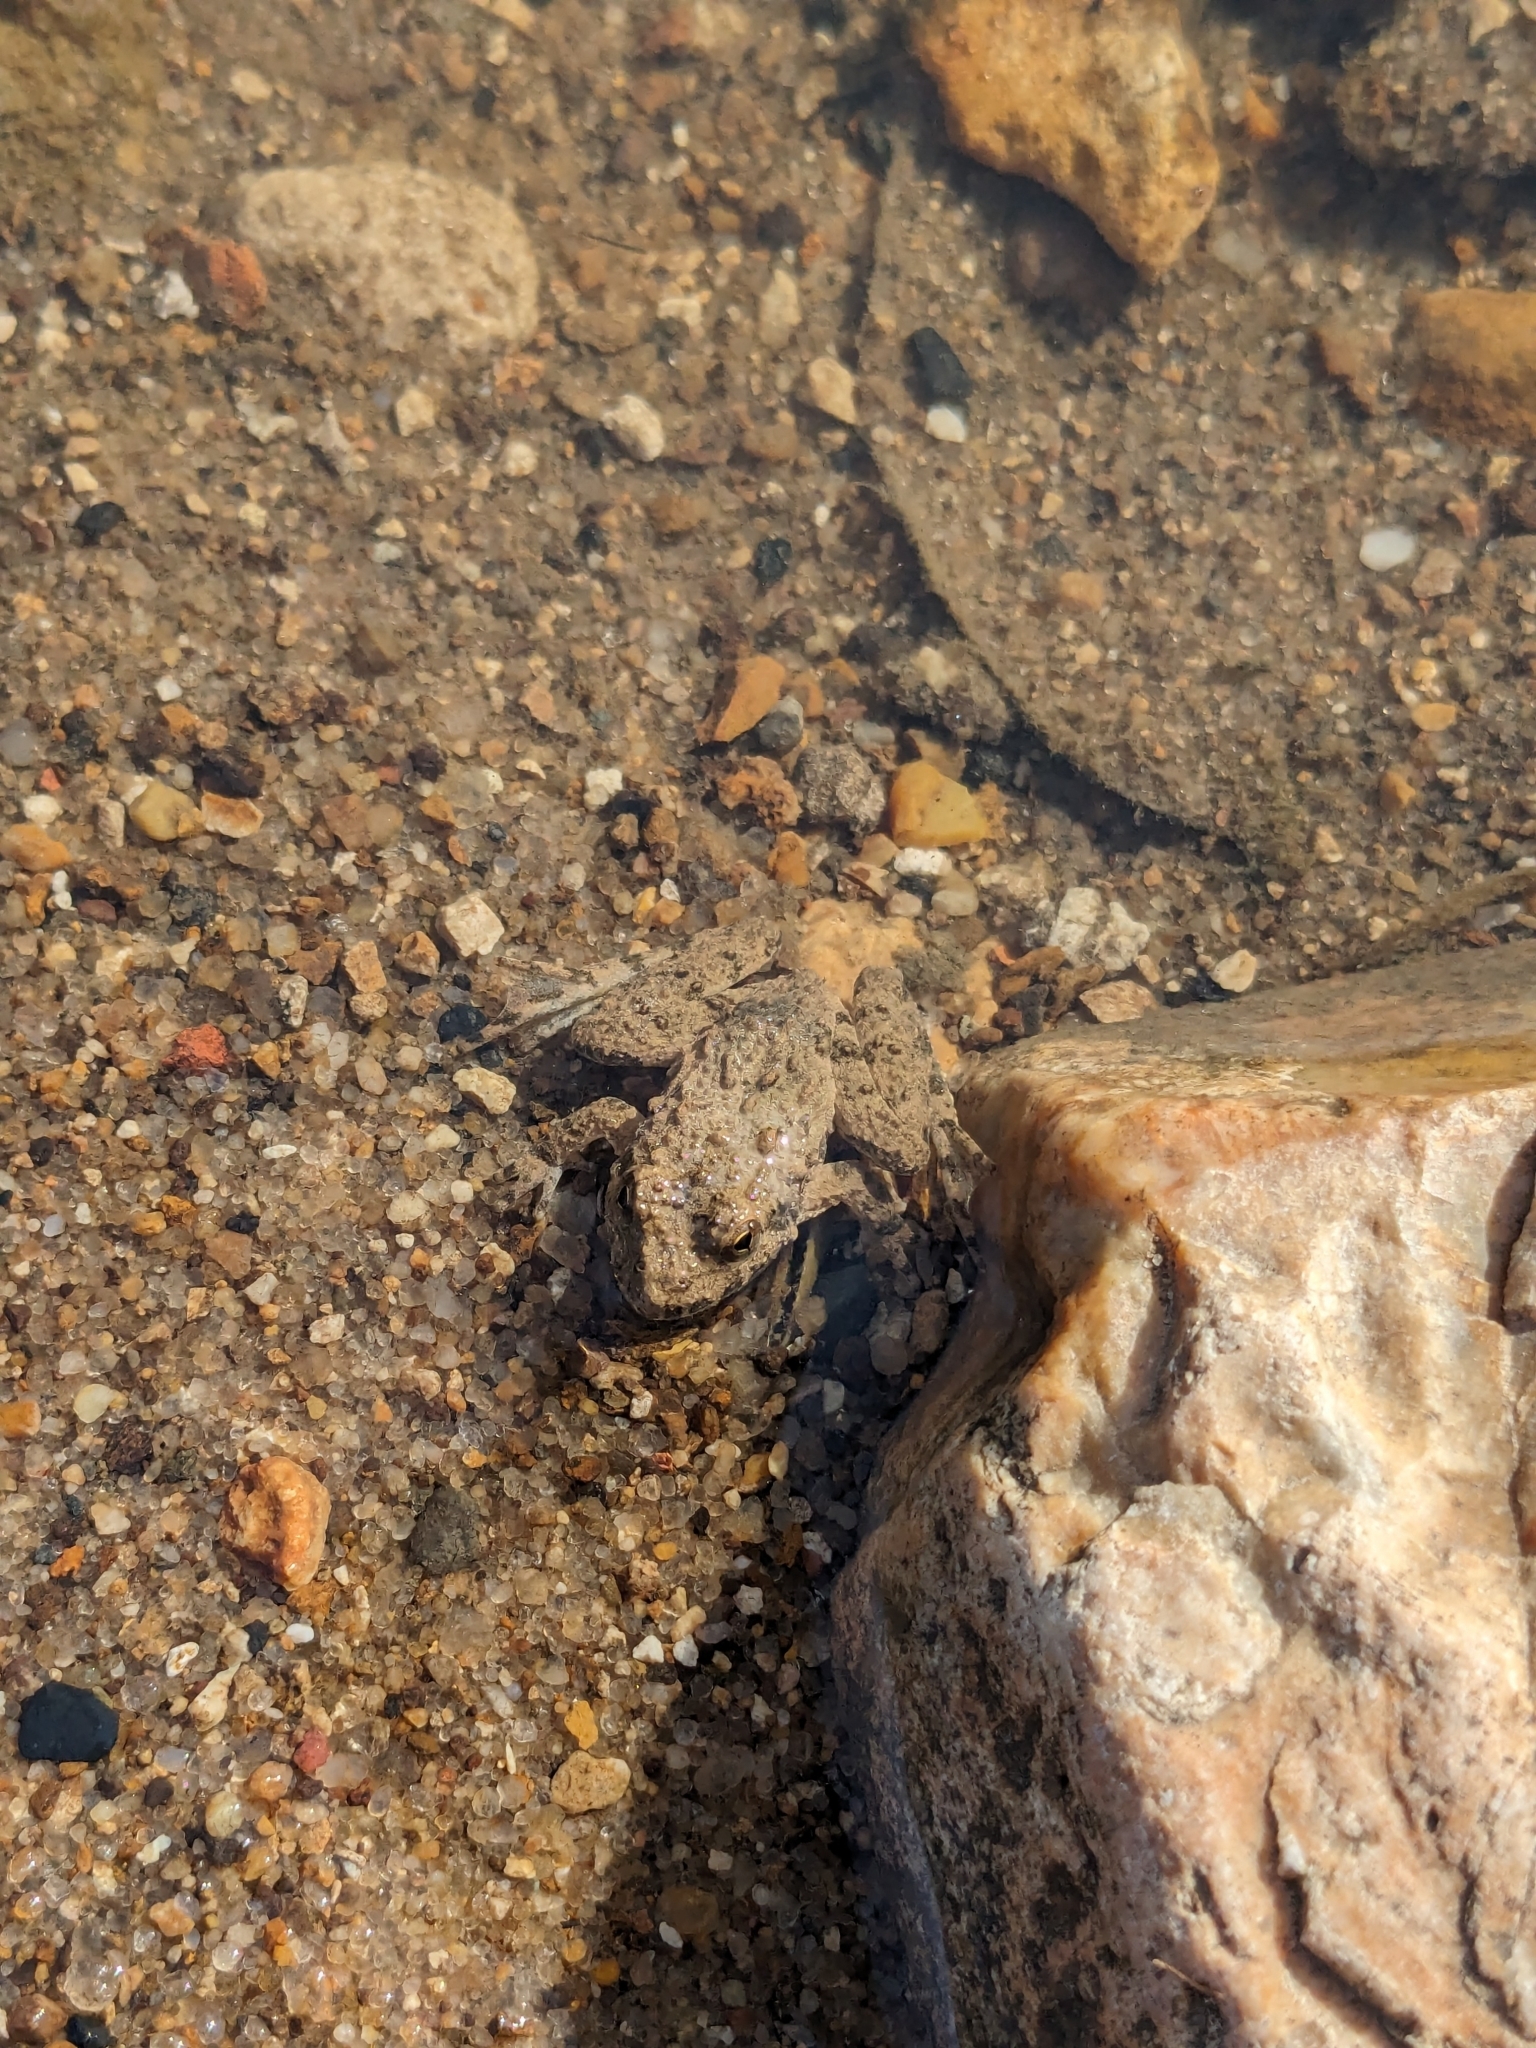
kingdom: Animalia
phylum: Chordata
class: Amphibia
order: Anura
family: Hylidae
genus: Acris
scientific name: Acris blanchardi
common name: Blanchard's cricket frog
